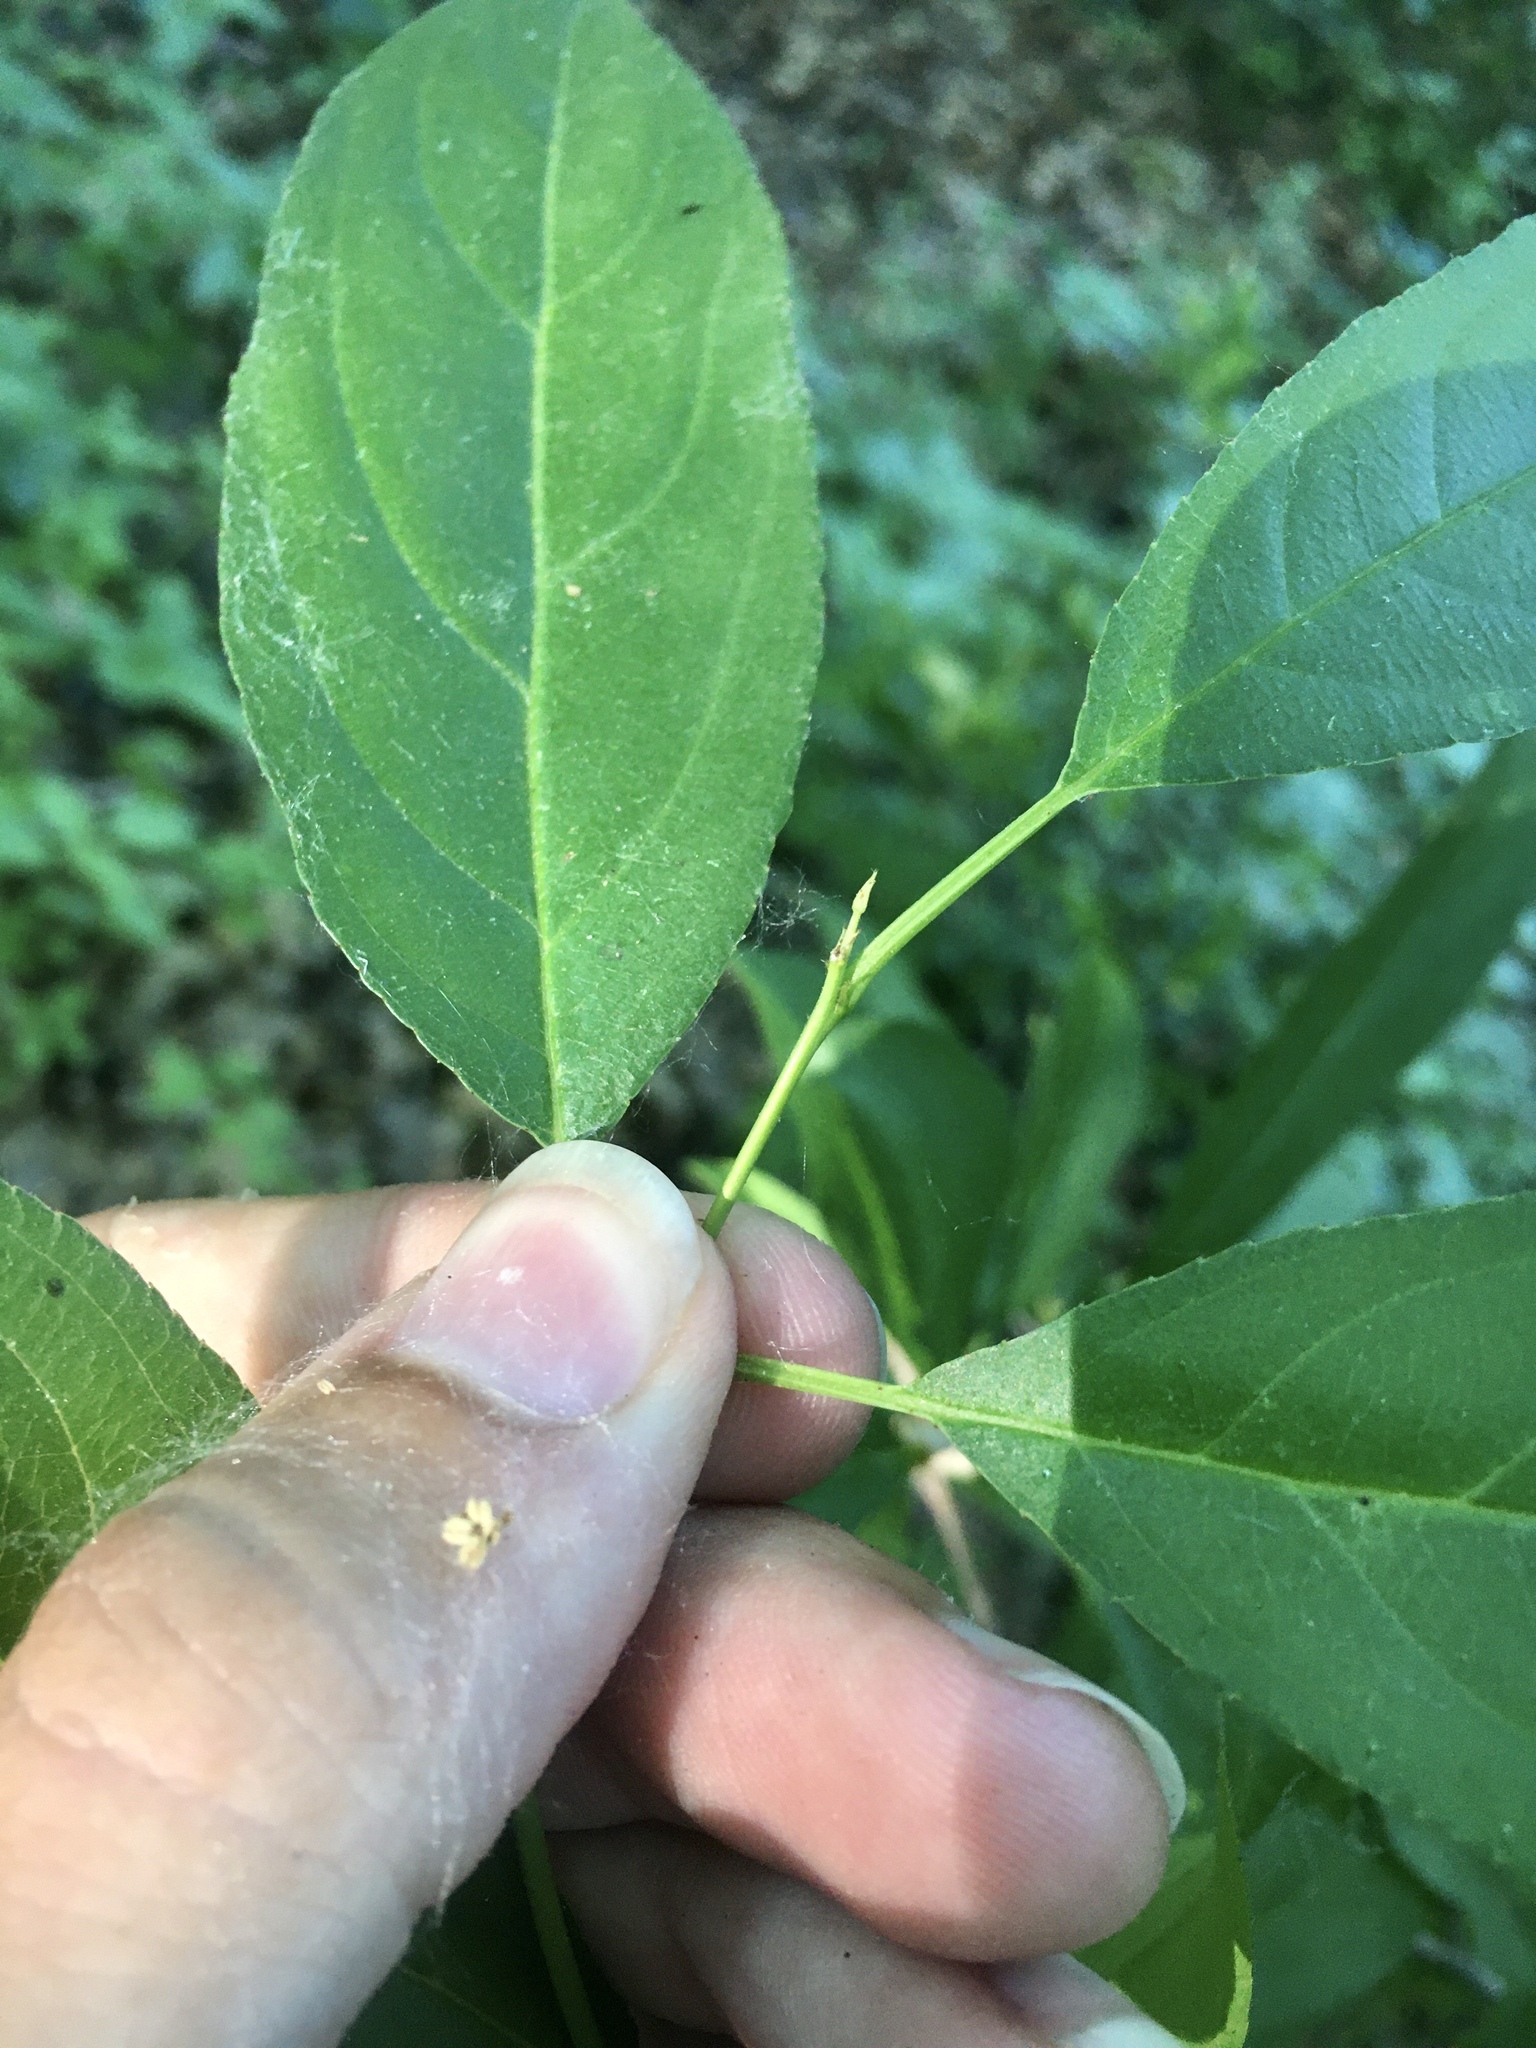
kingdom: Plantae
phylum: Tracheophyta
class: Magnoliopsida
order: Rosales
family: Rhamnaceae
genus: Rhamnus
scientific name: Rhamnus virgata
